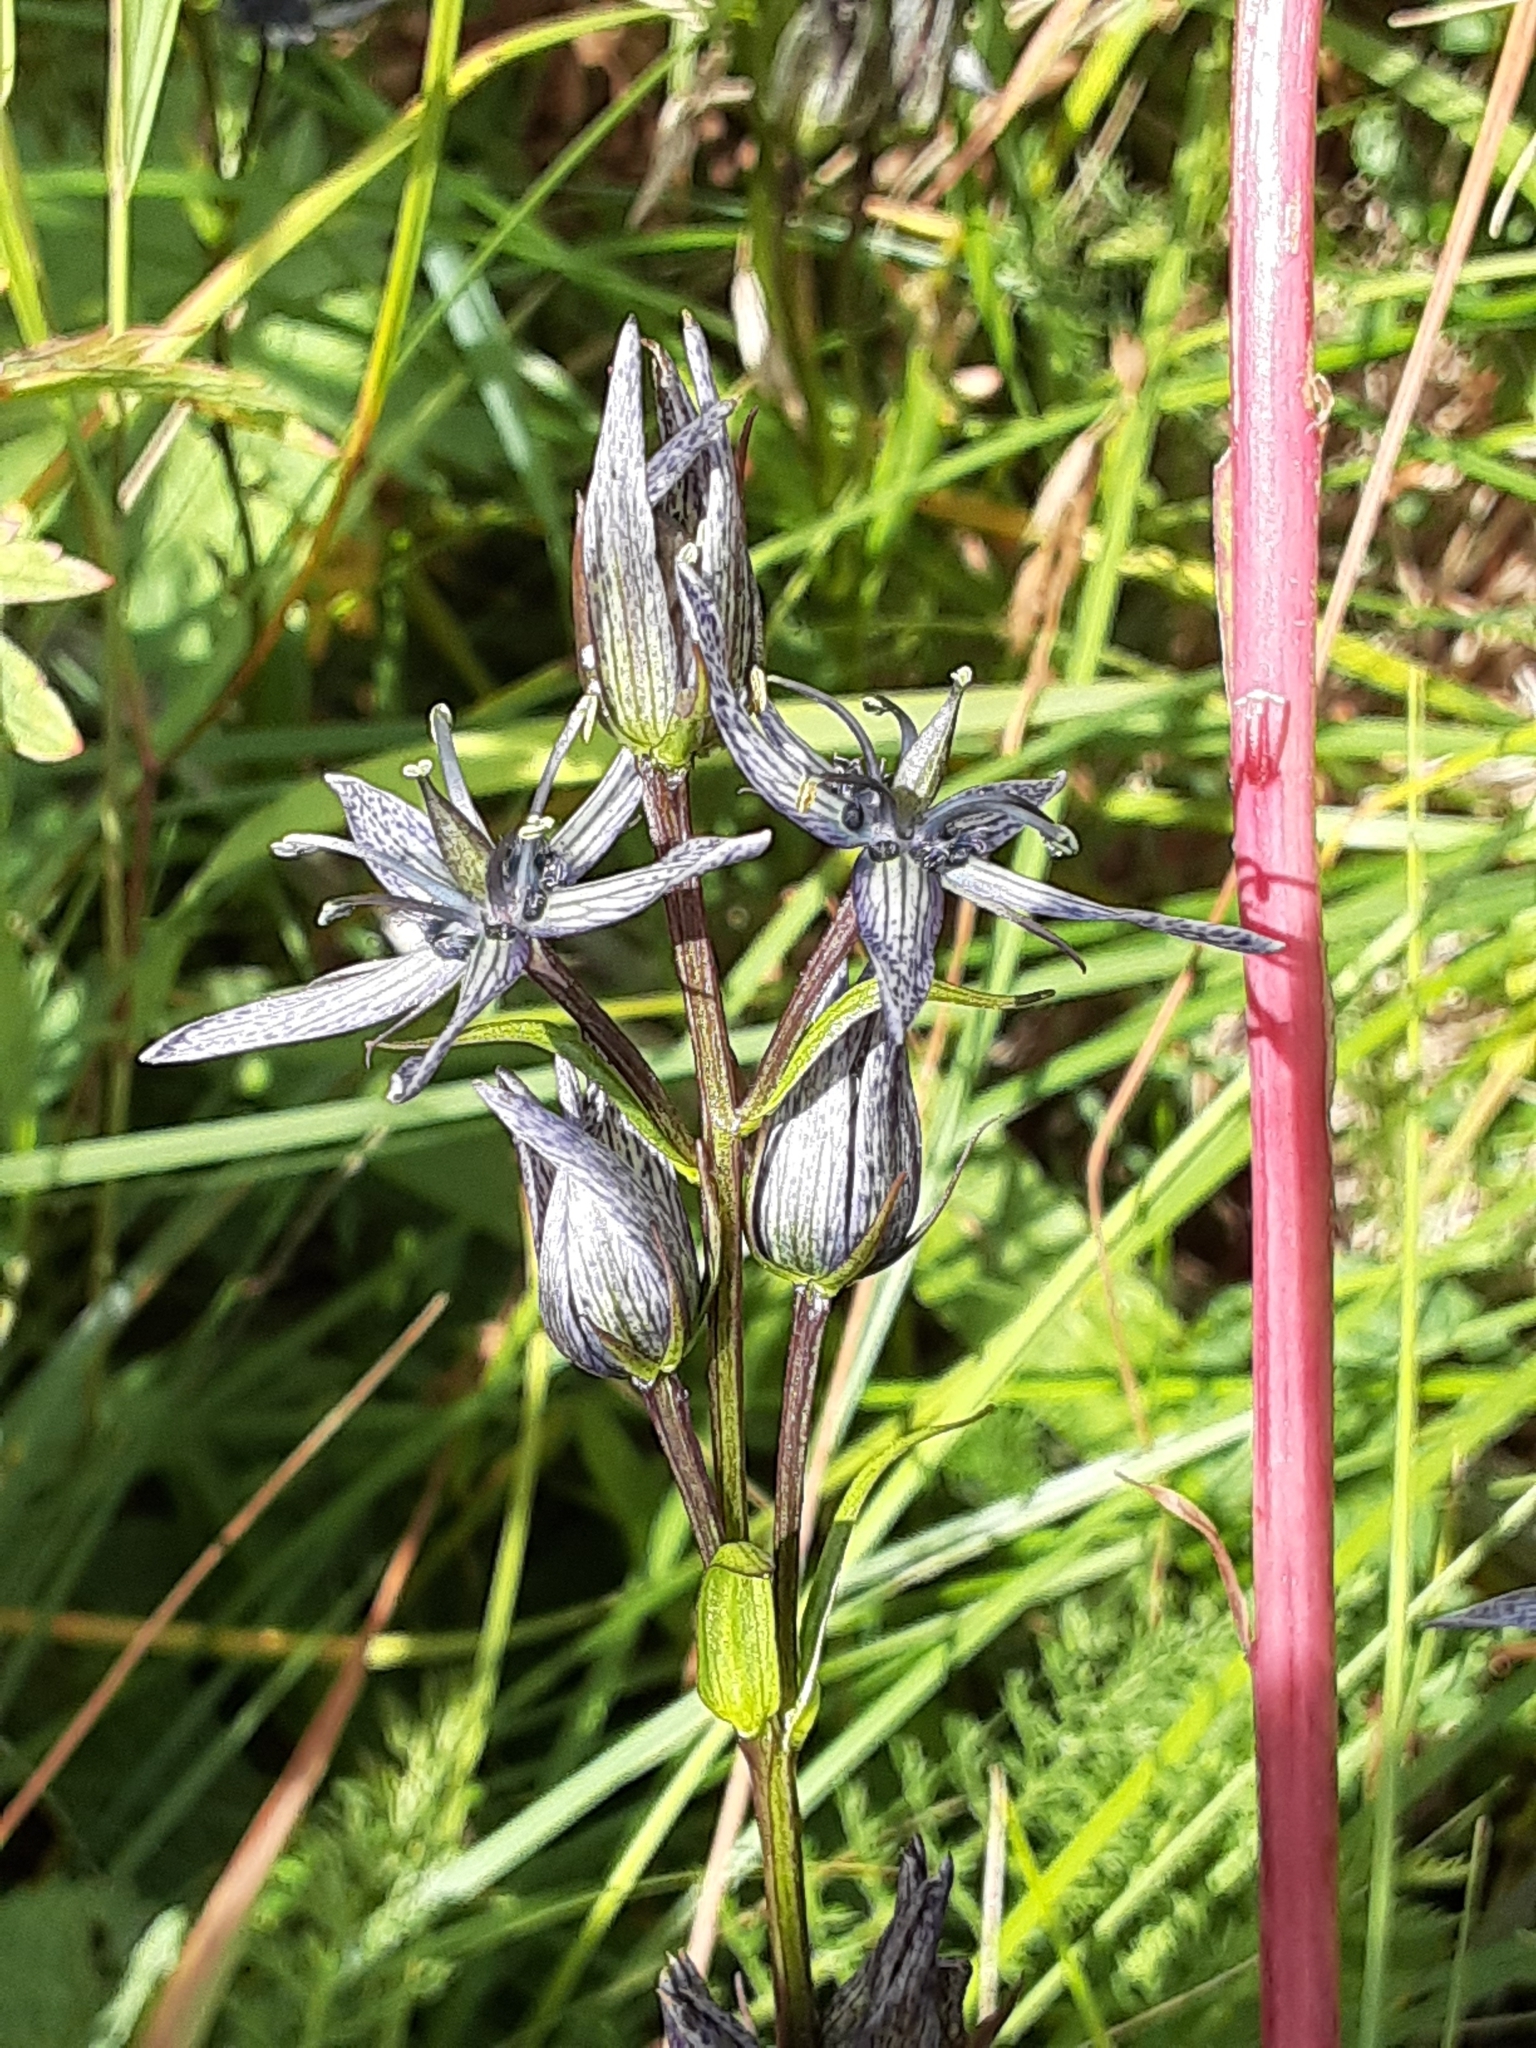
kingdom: Plantae
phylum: Tracheophyta
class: Magnoliopsida
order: Gentianales
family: Gentianaceae
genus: Swertia
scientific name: Swertia perennis
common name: Alpine bog swertia
